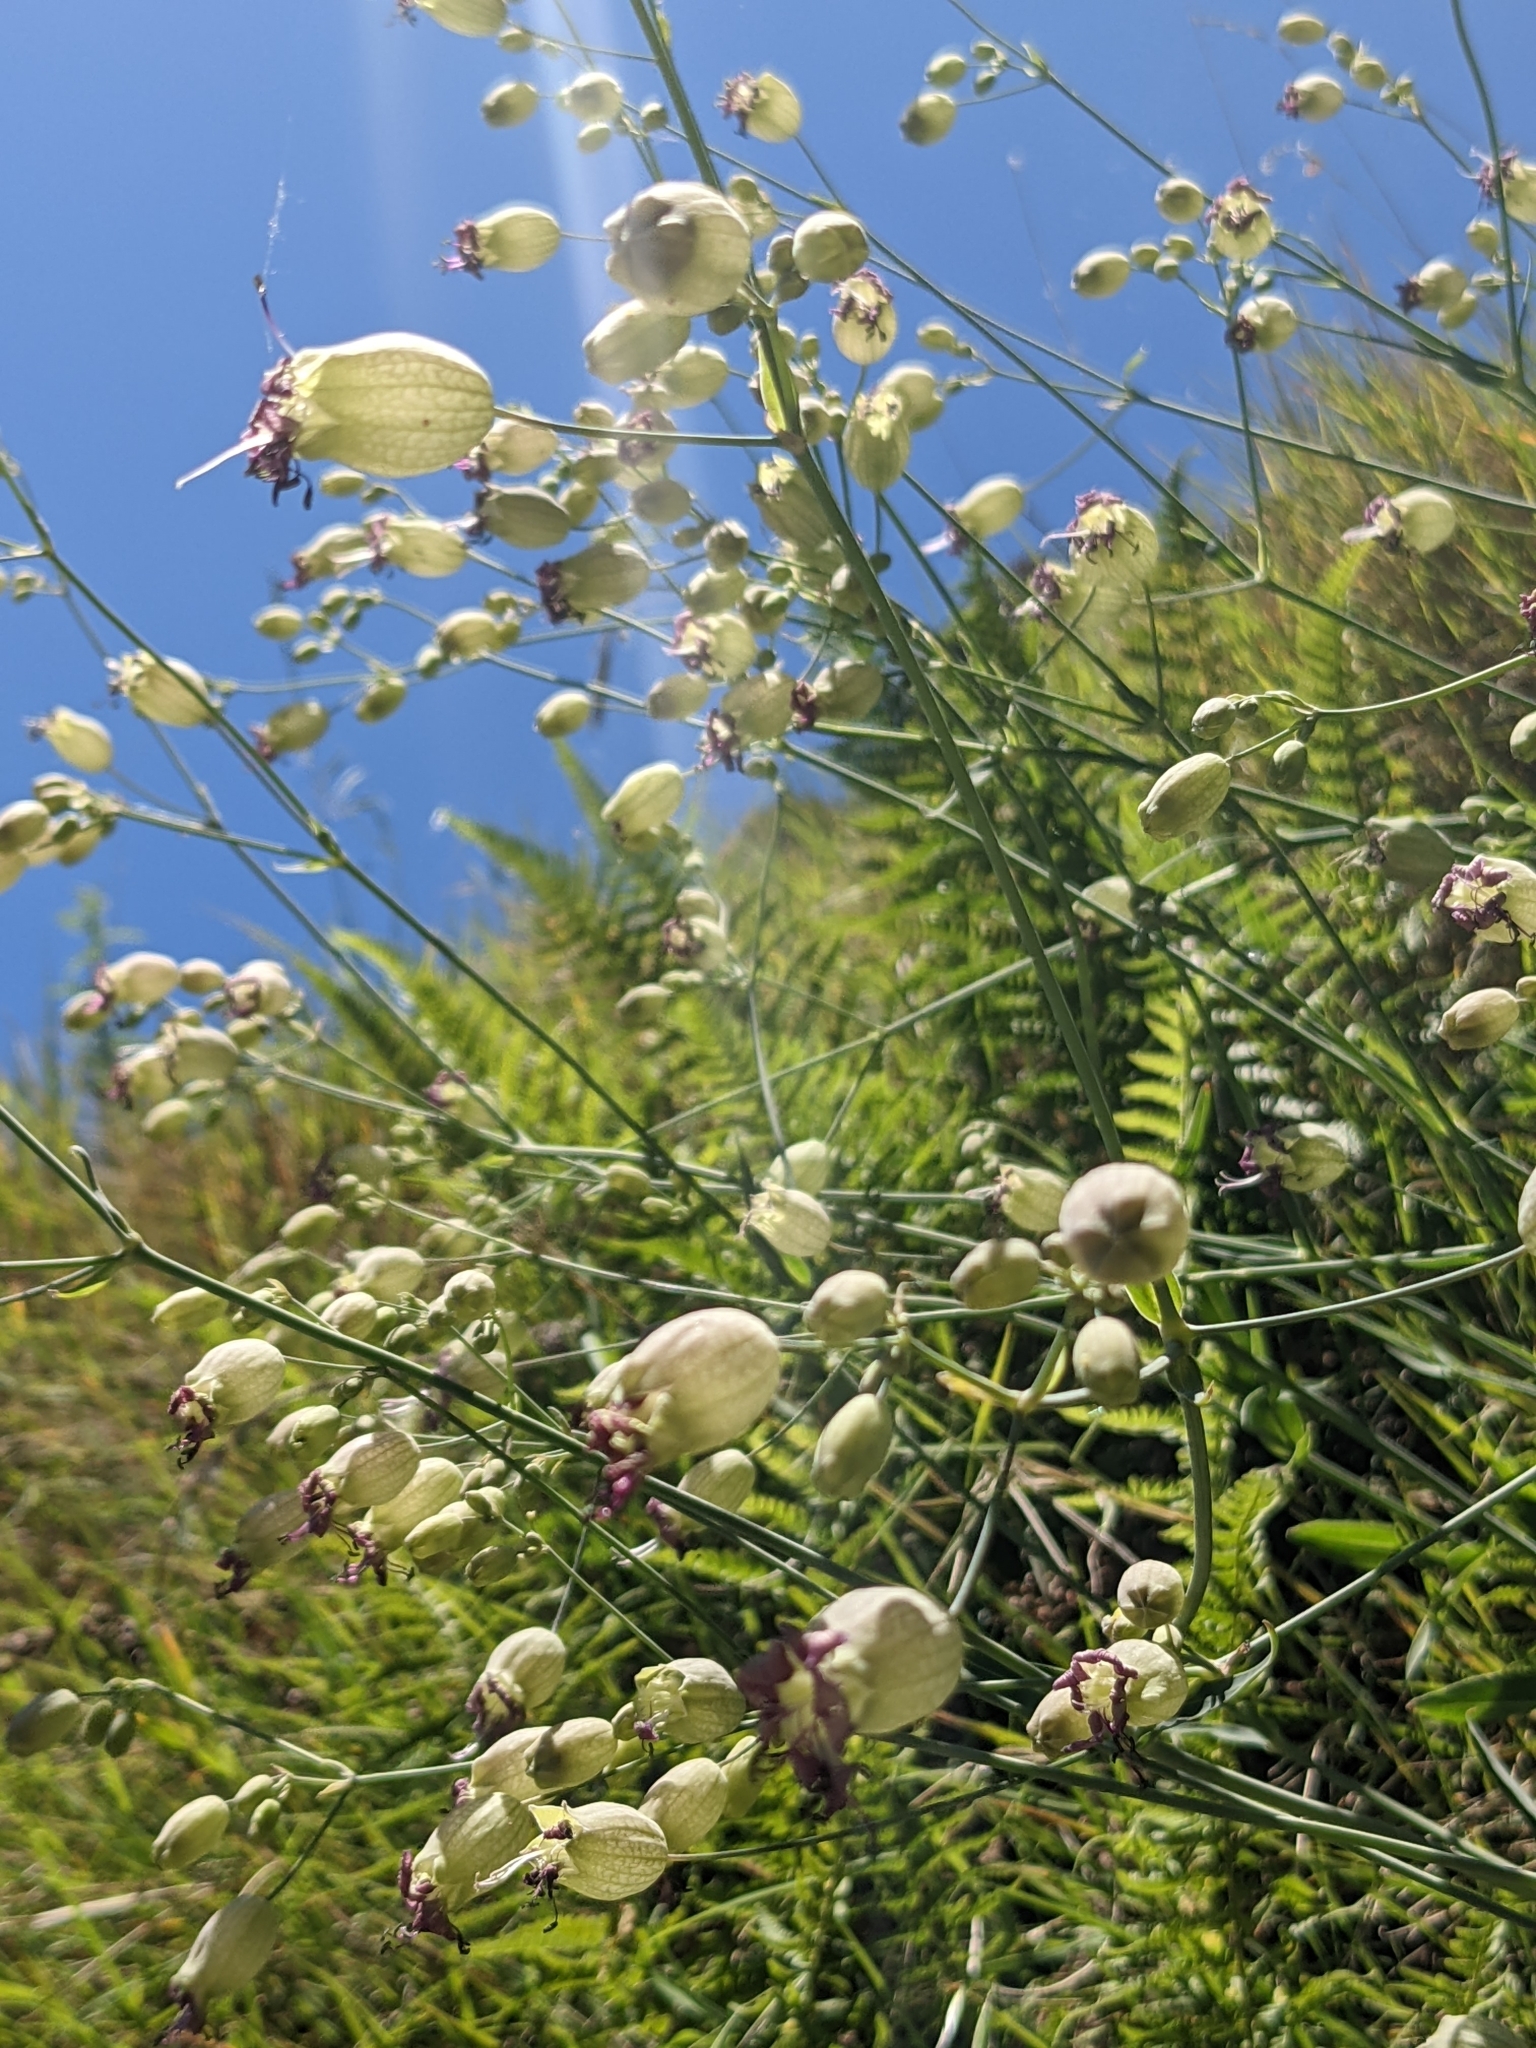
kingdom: Plantae
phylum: Tracheophyta
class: Magnoliopsida
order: Caryophyllales
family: Caryophyllaceae
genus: Silene
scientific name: Silene vulgaris
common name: Bladder campion
